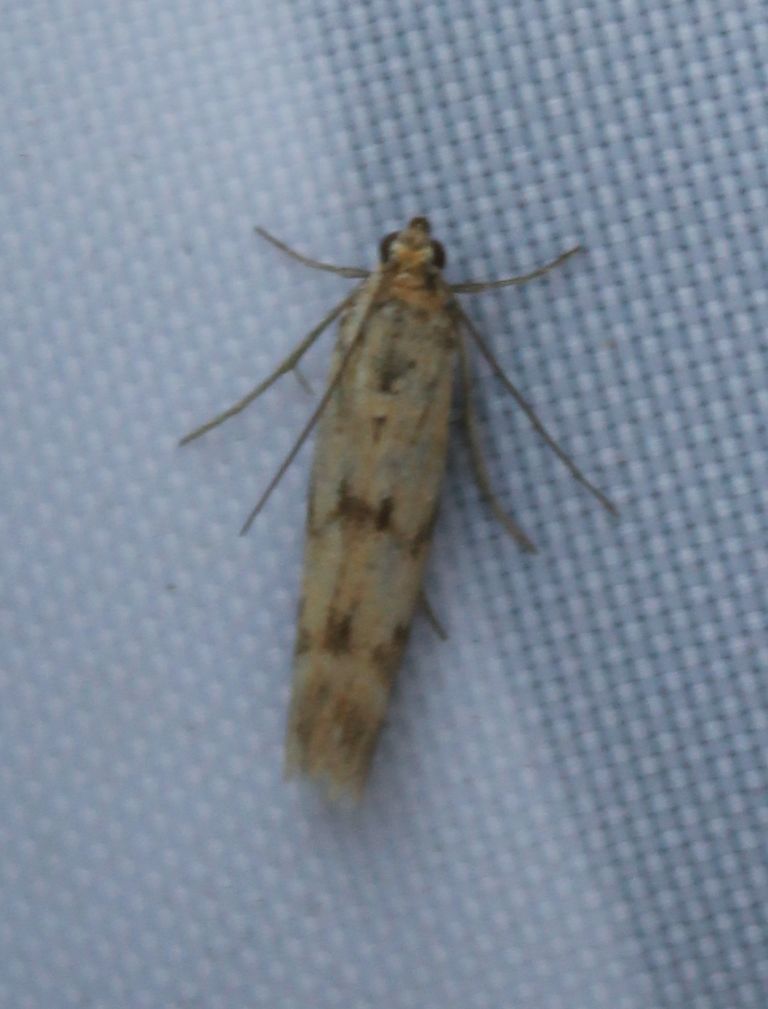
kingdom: Animalia
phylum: Arthropoda
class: Insecta
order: Lepidoptera
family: Pyralidae
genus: Homoeosoma
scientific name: Homoeosoma sinuella
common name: Twin-barred knot-horn
